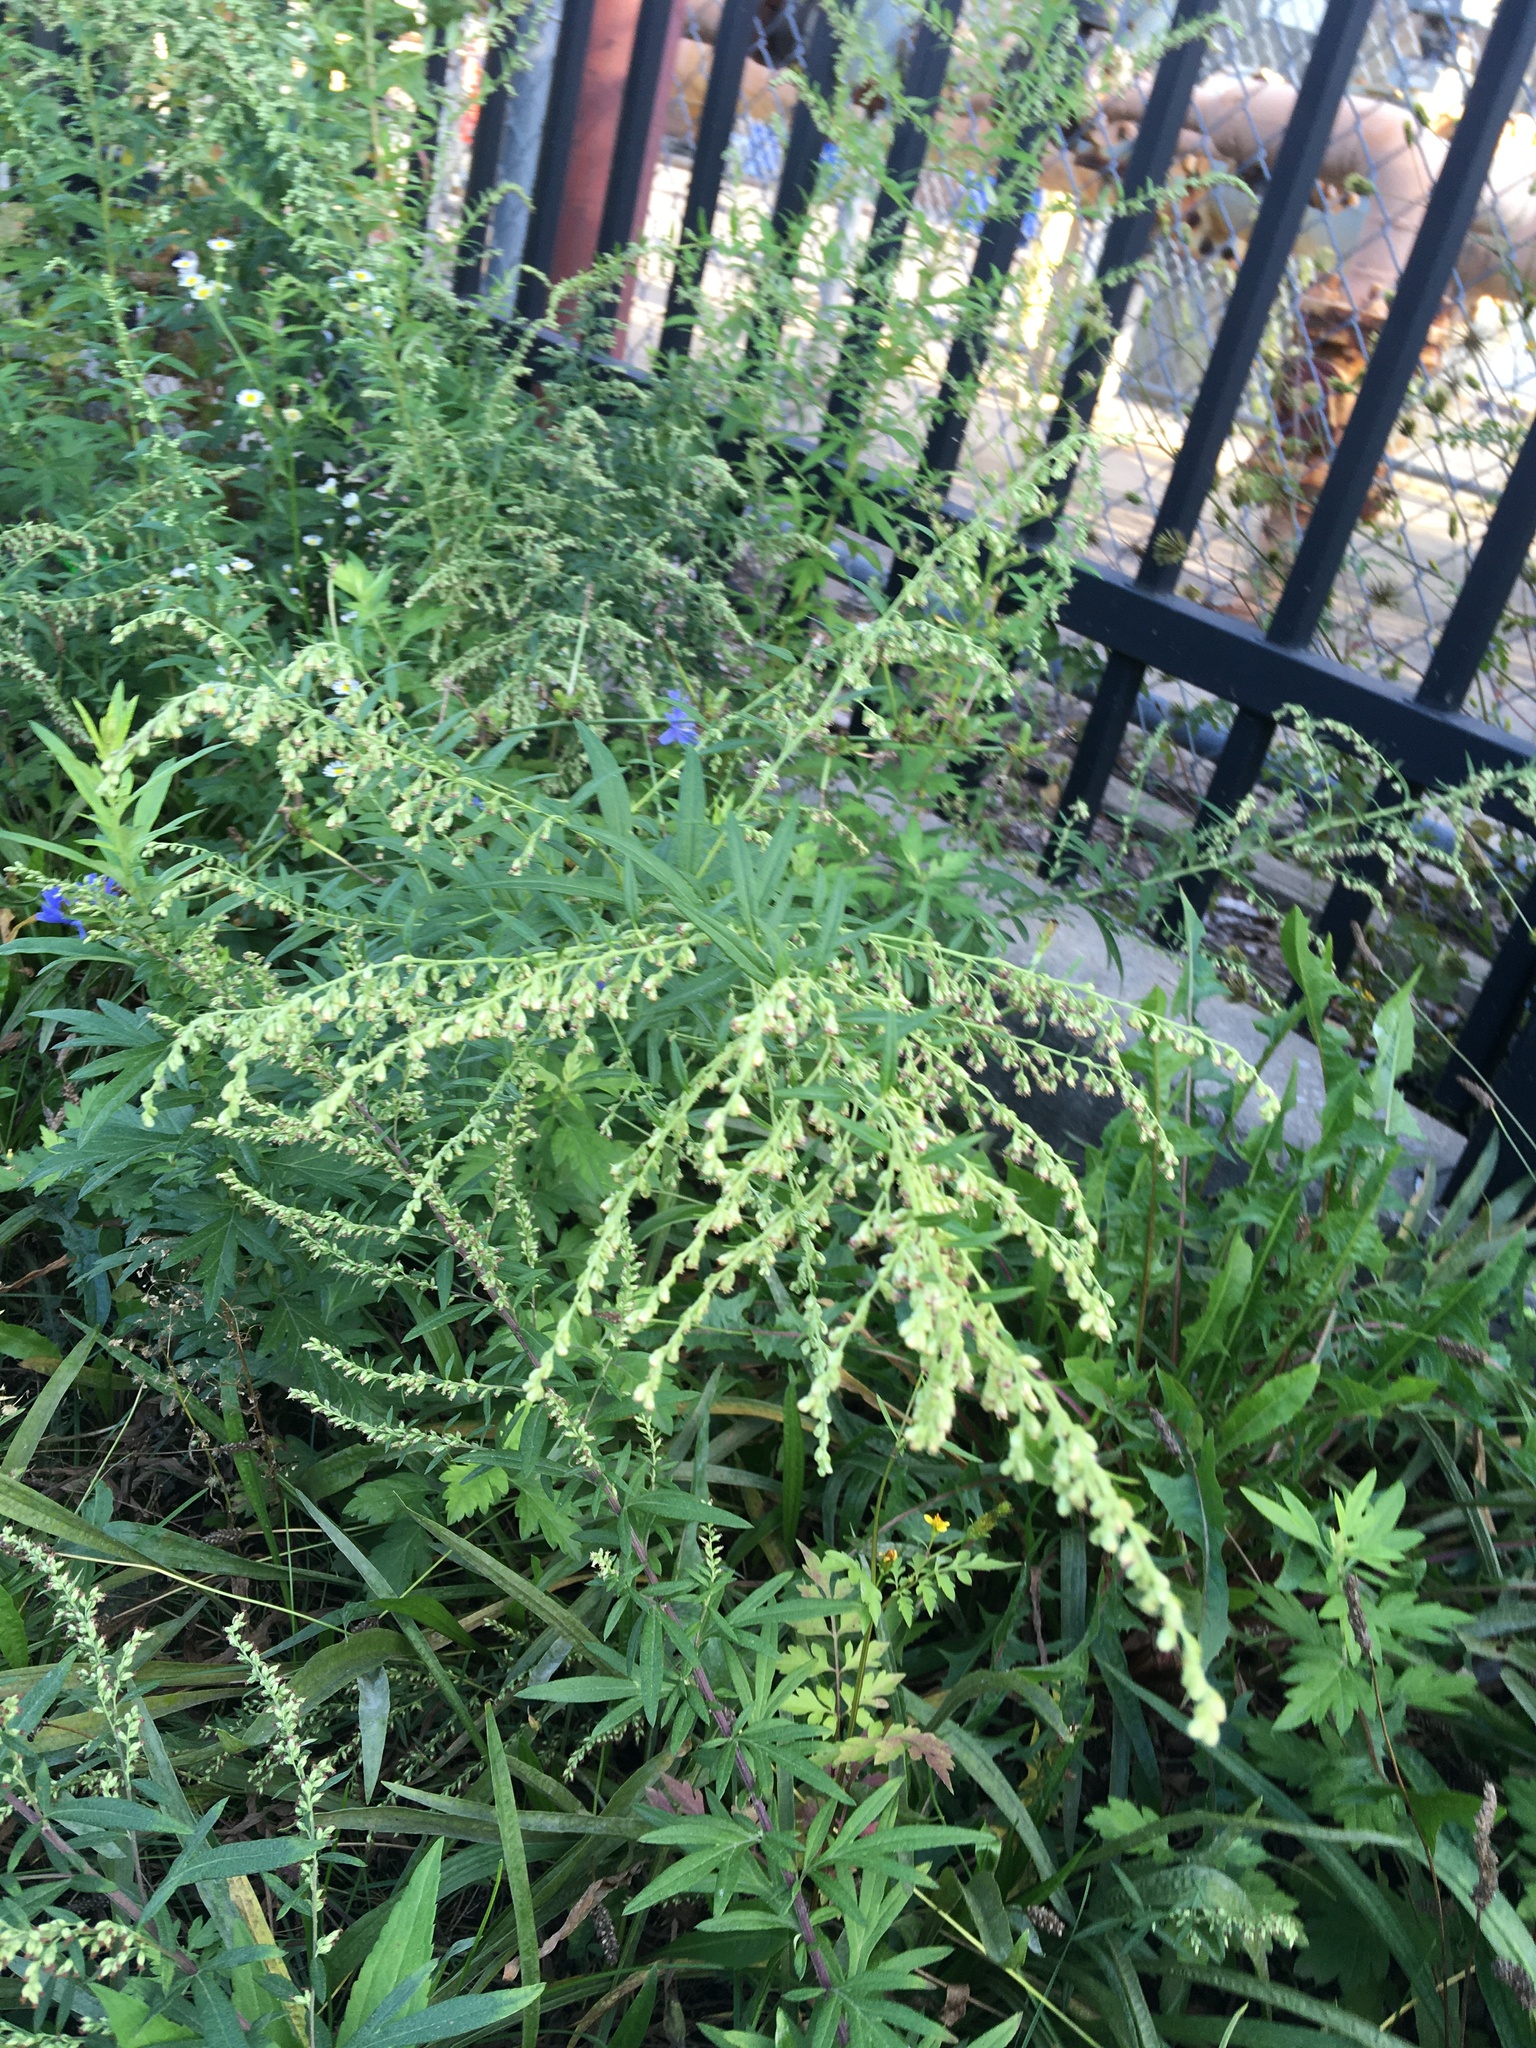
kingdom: Plantae
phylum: Tracheophyta
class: Magnoliopsida
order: Asterales
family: Asteraceae
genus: Artemisia
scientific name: Artemisia vulgaris
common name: Mugwort
